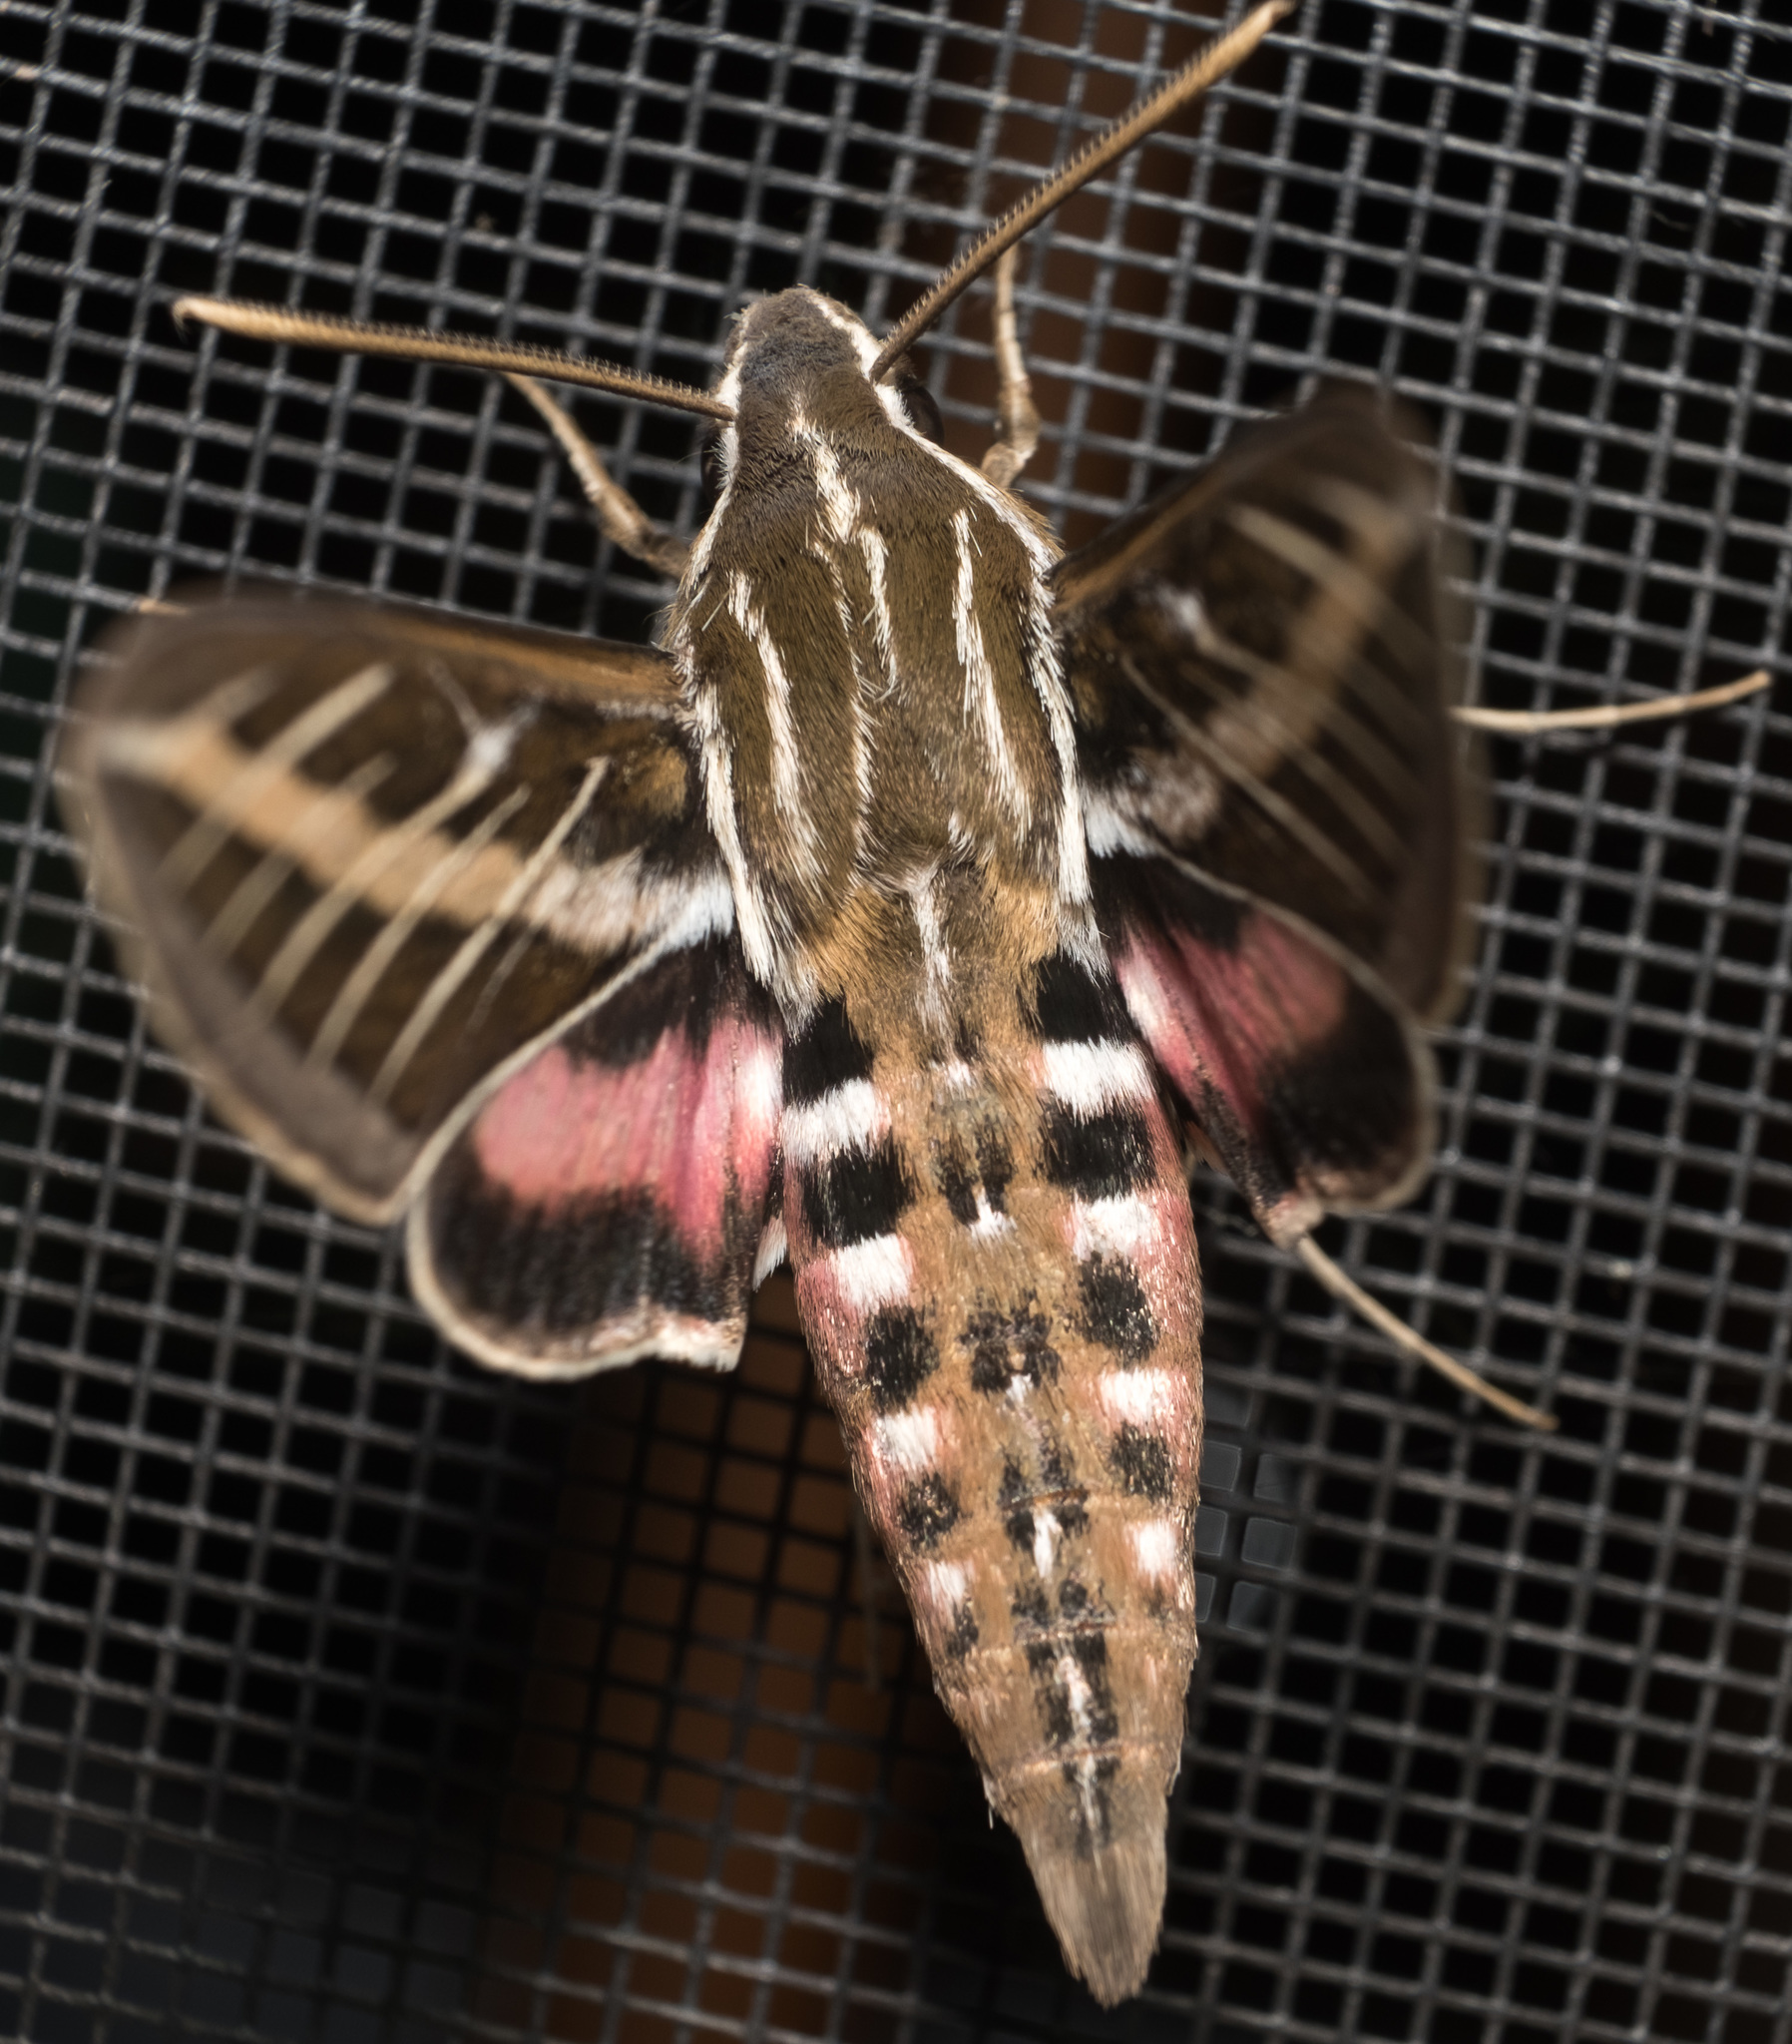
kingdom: Animalia
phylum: Arthropoda
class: Insecta
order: Lepidoptera
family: Sphingidae
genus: Hyles
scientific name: Hyles lineata
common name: White-lined sphinx
